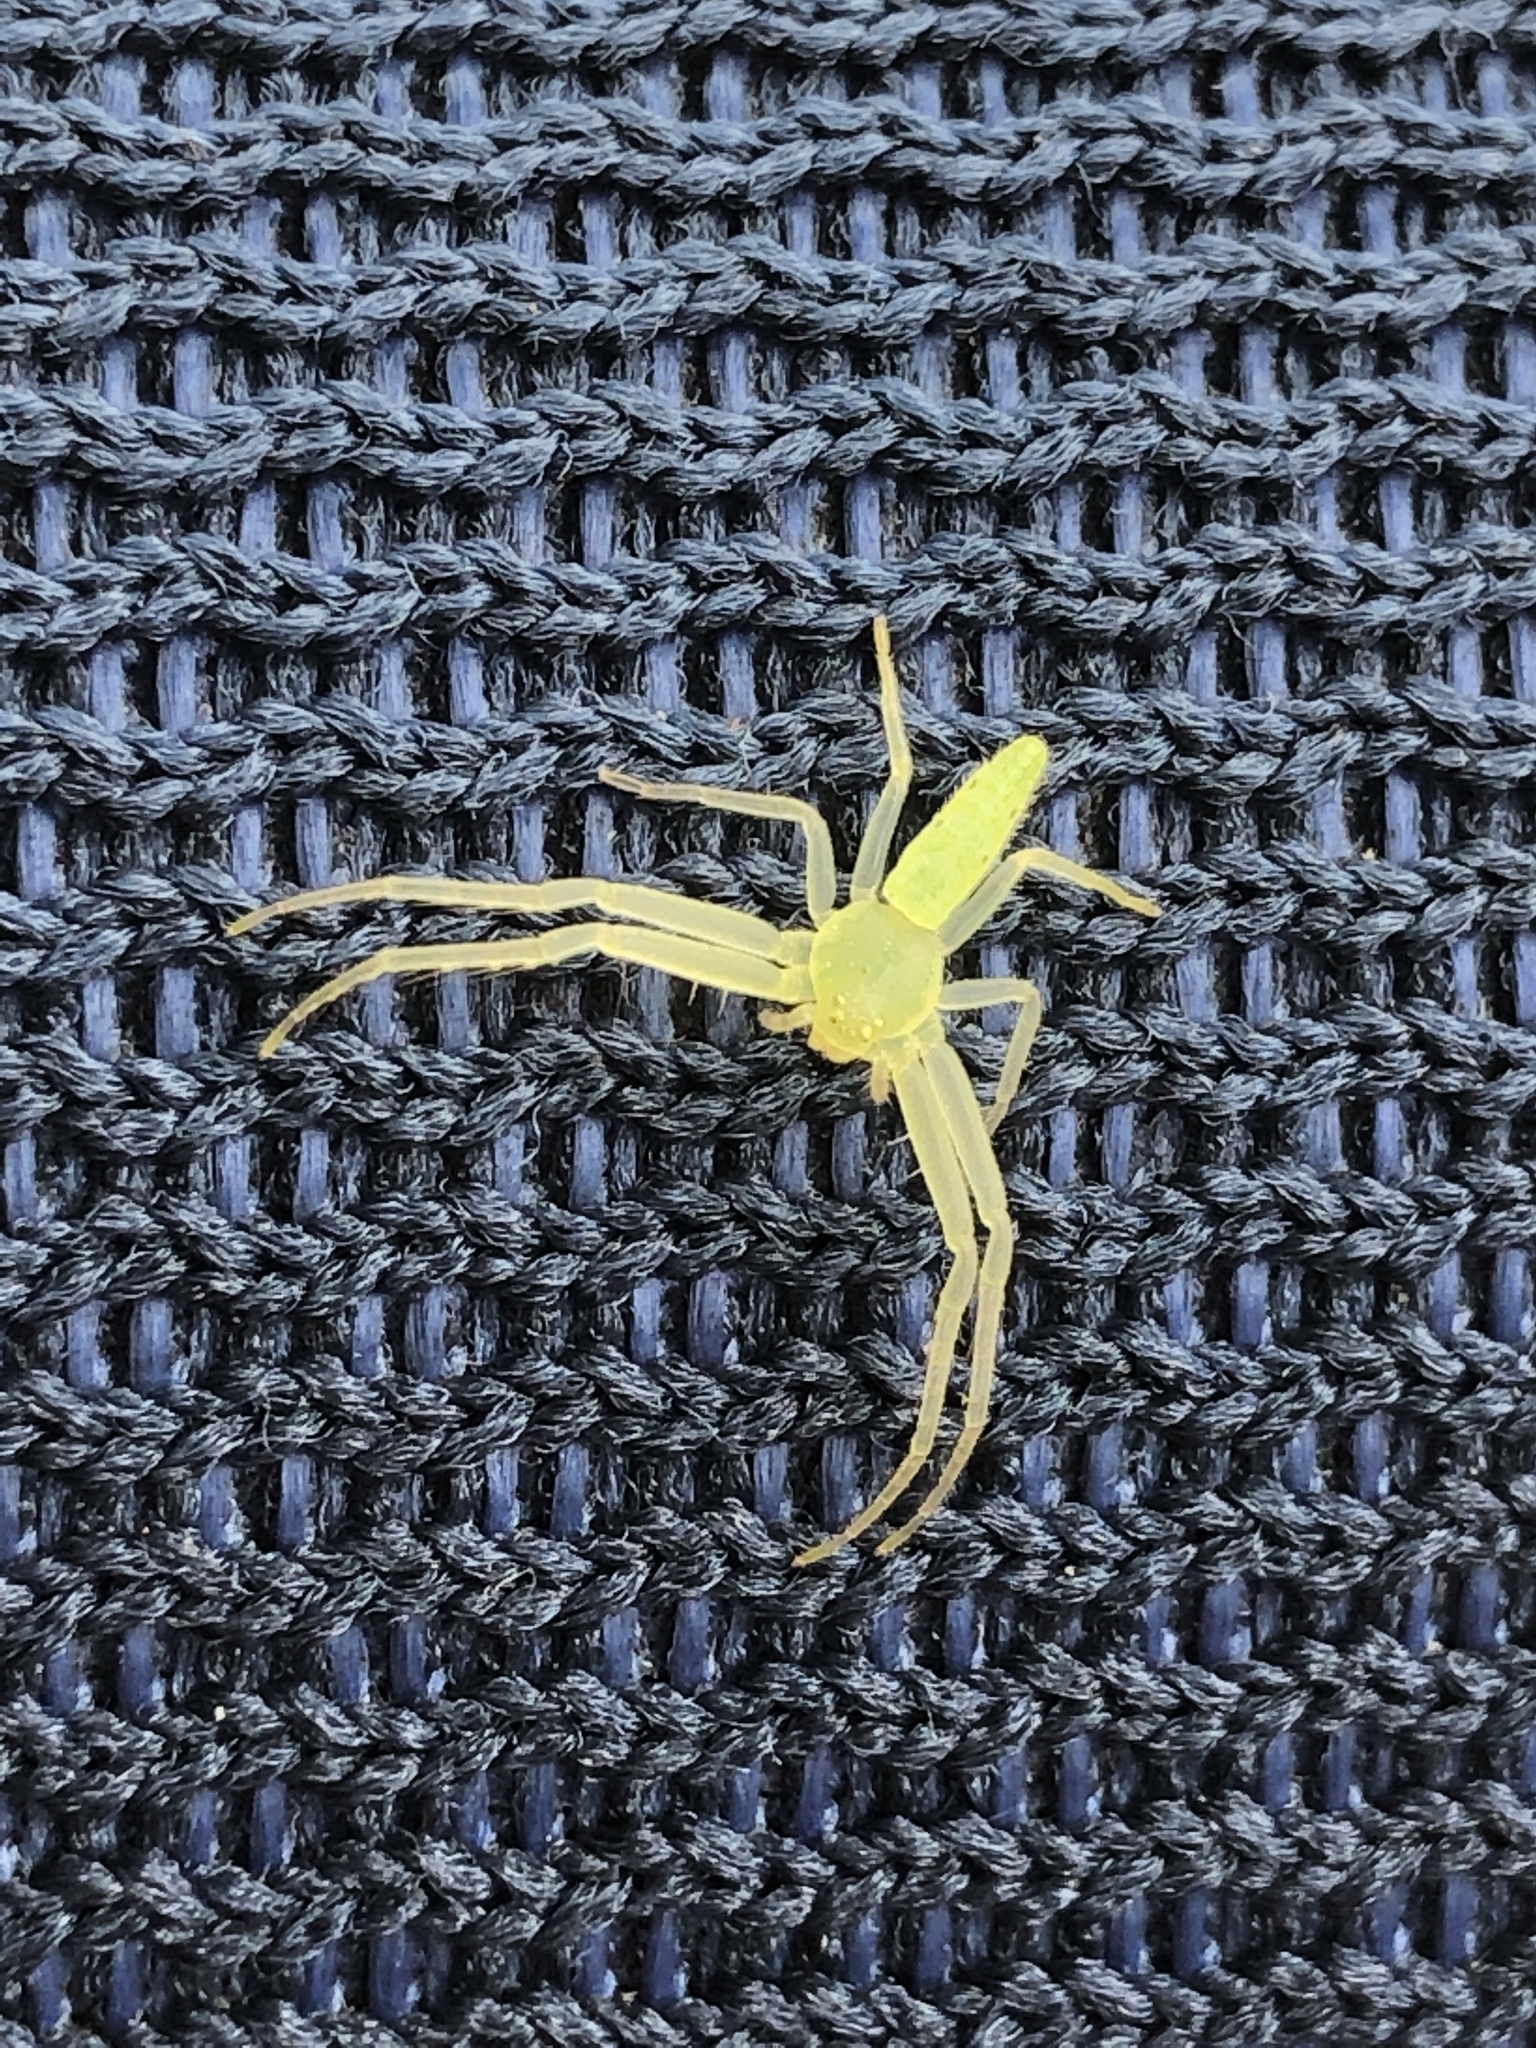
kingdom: Animalia
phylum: Arthropoda
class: Arachnida
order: Araneae
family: Thomisidae
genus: Oxytate
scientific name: Oxytate hoshizuna
